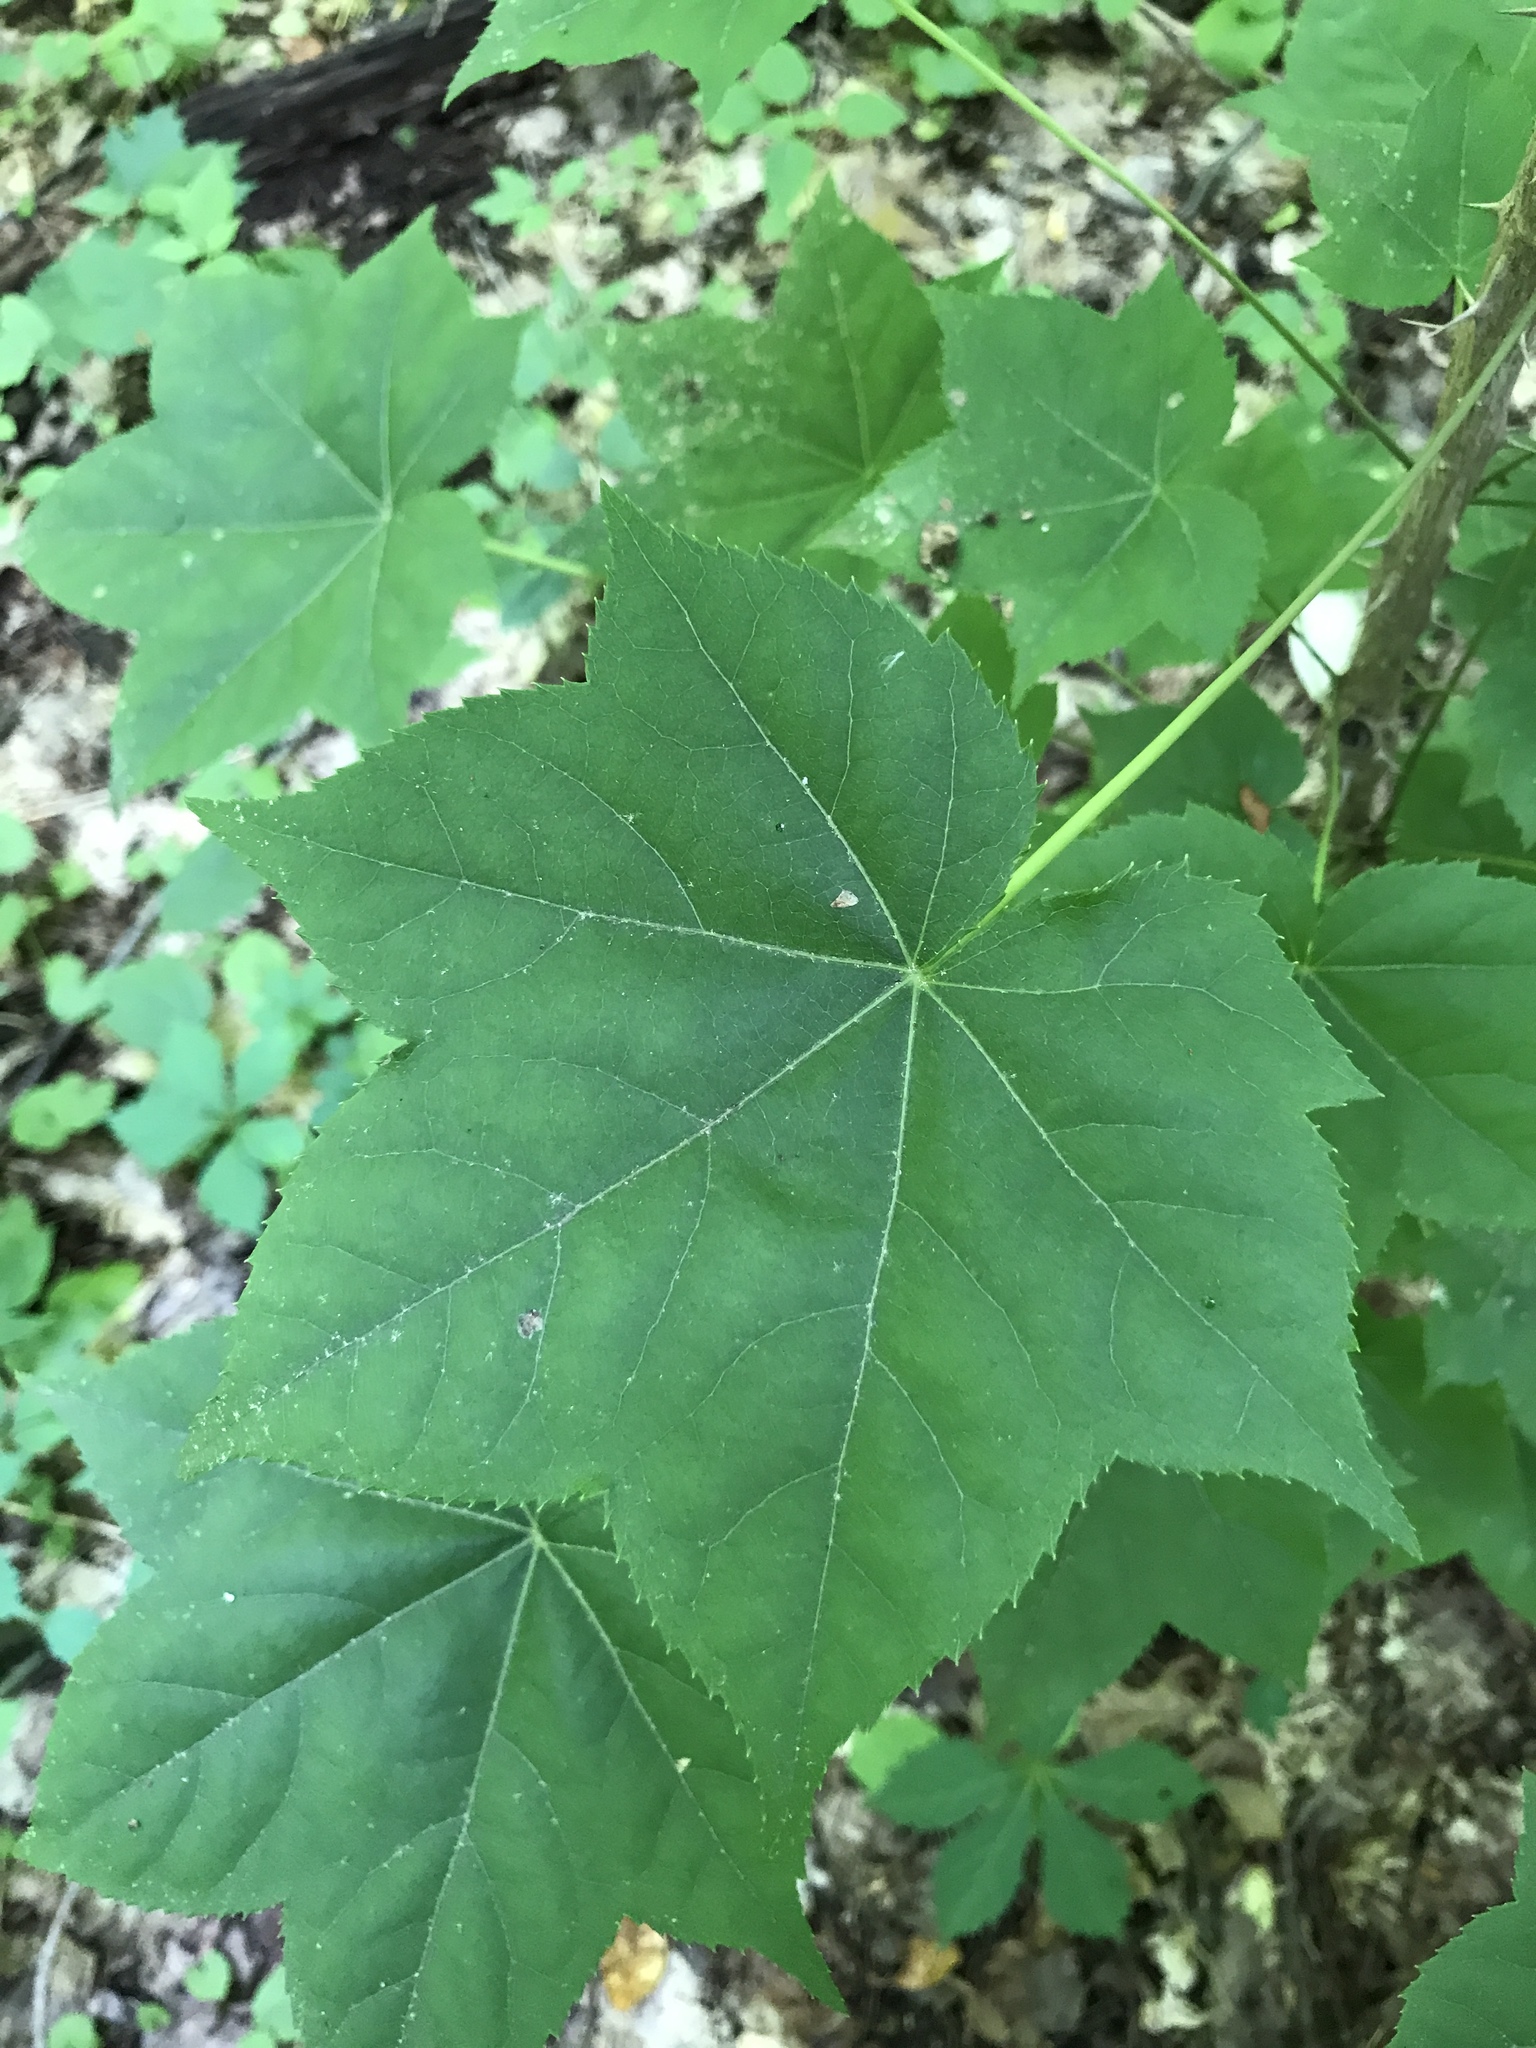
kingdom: Plantae
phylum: Tracheophyta
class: Magnoliopsida
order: Apiales
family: Araliaceae
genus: Kalopanax
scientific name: Kalopanax septemlobus
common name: Castor aralia
